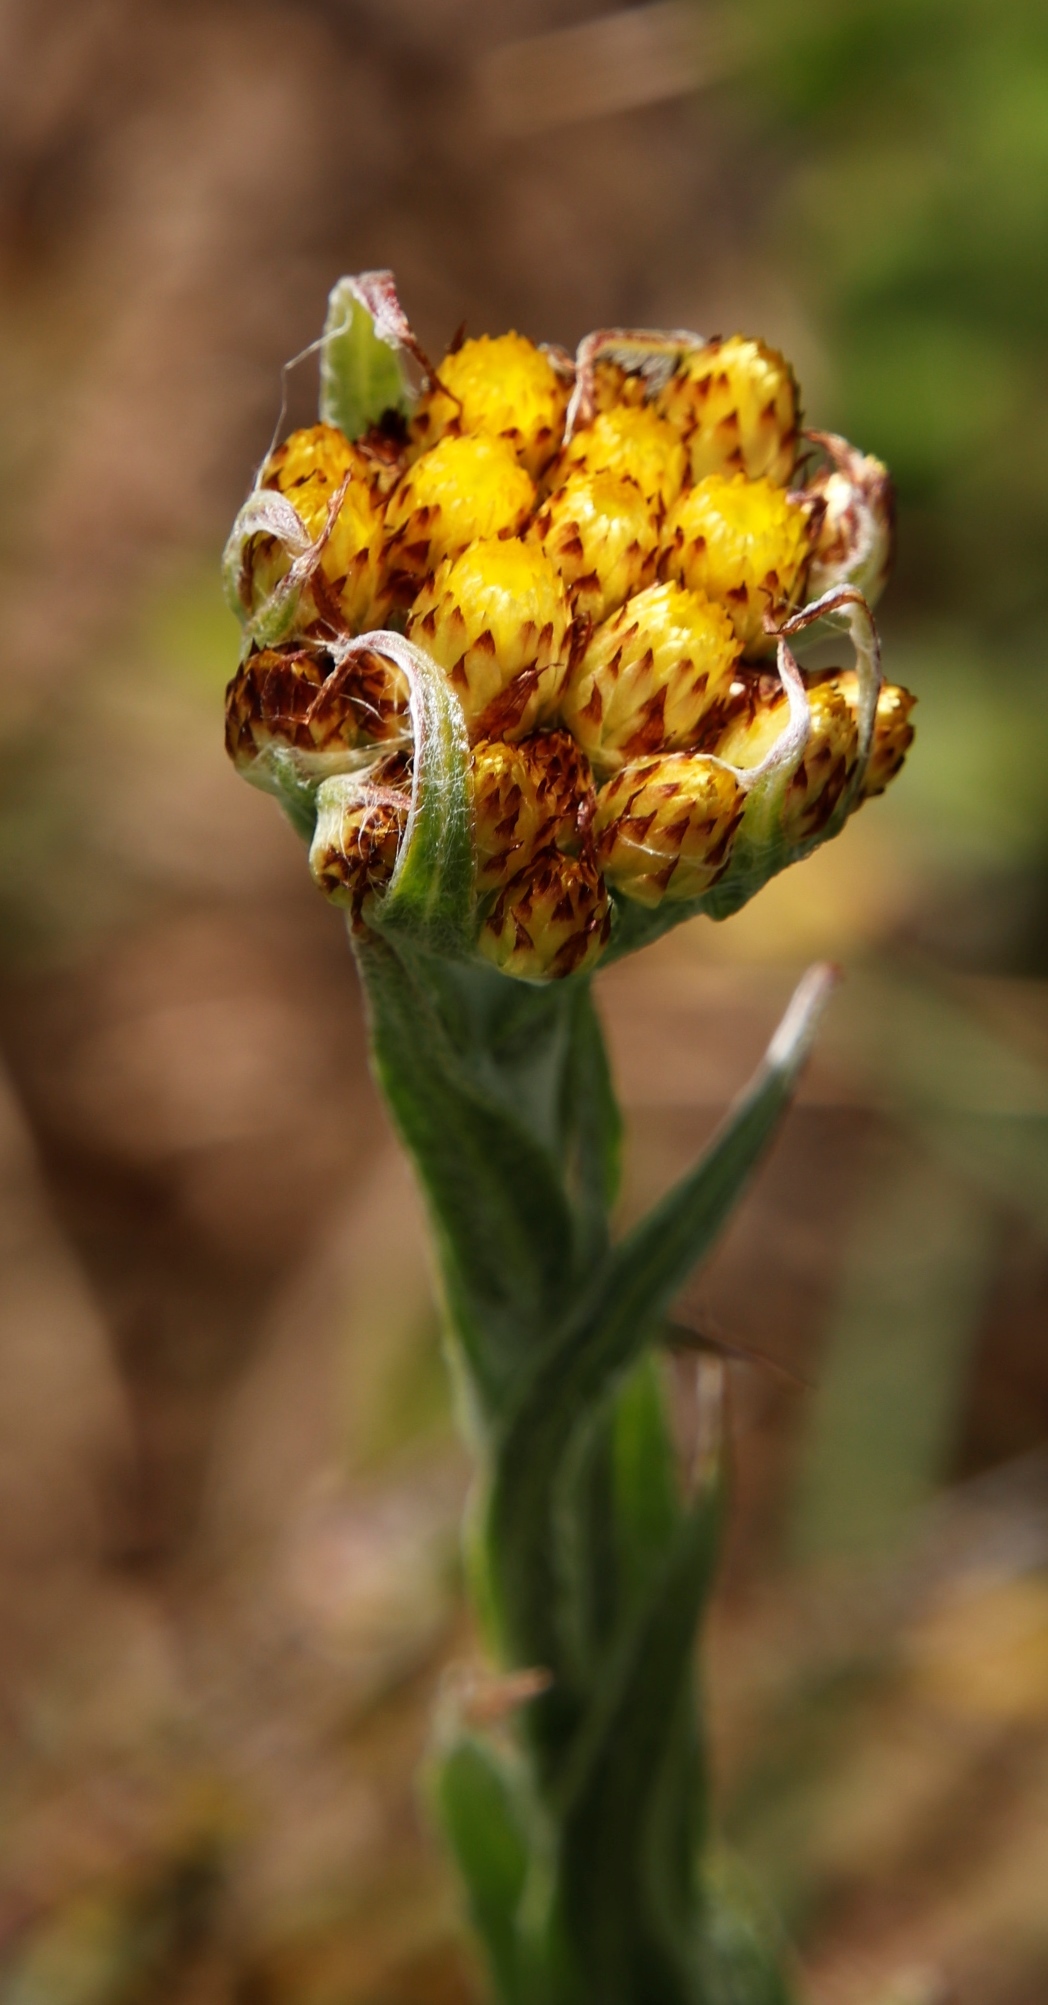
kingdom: Plantae
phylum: Tracheophyta
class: Magnoliopsida
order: Asterales
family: Asteraceae
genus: Helichrysum
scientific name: Helichrysum cephaloideum
